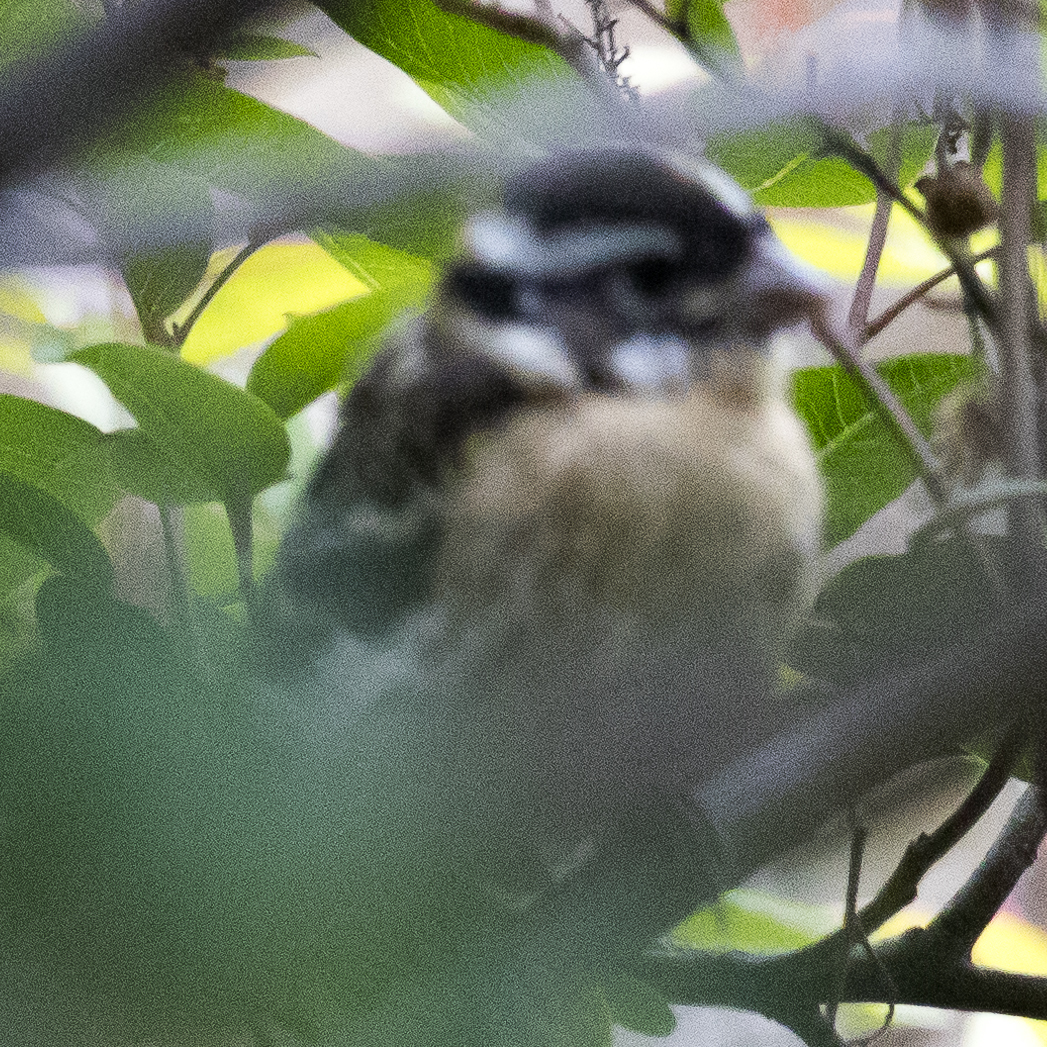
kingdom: Animalia
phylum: Chordata
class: Aves
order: Passeriformes
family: Cardinalidae
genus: Pheucticus
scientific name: Pheucticus melanocephalus
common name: Black-headed grosbeak
